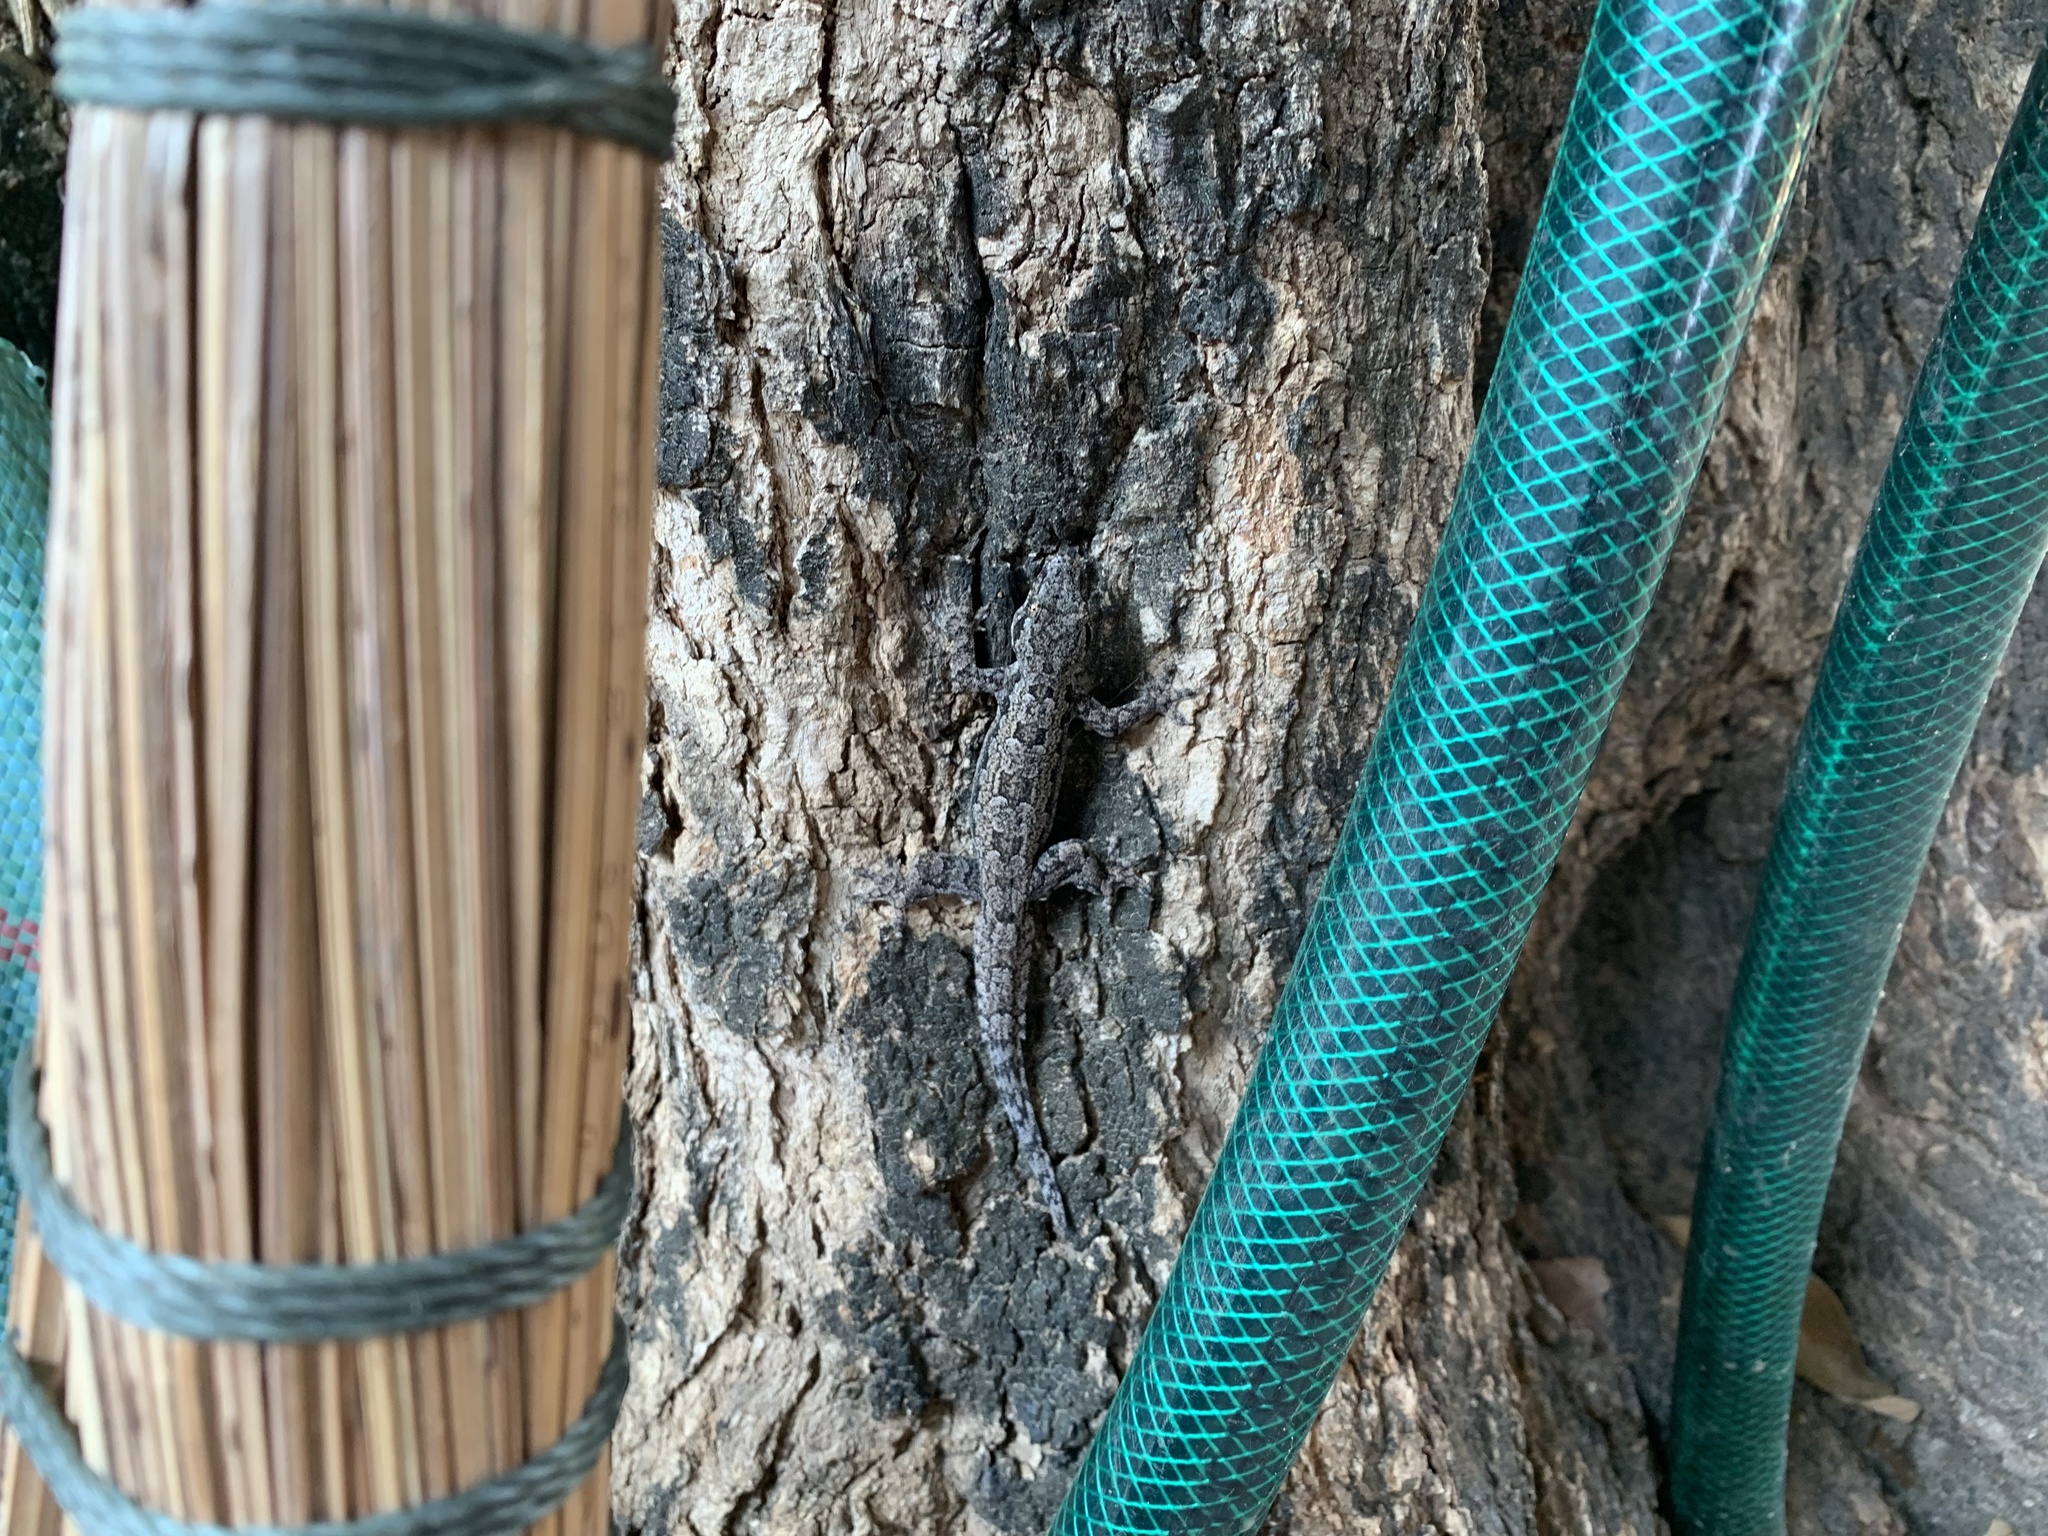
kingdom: Animalia
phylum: Chordata
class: Squamata
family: Gekkonidae
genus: Hemidactylus
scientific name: Hemidactylus platyurus
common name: Flat-tailed house gecko
